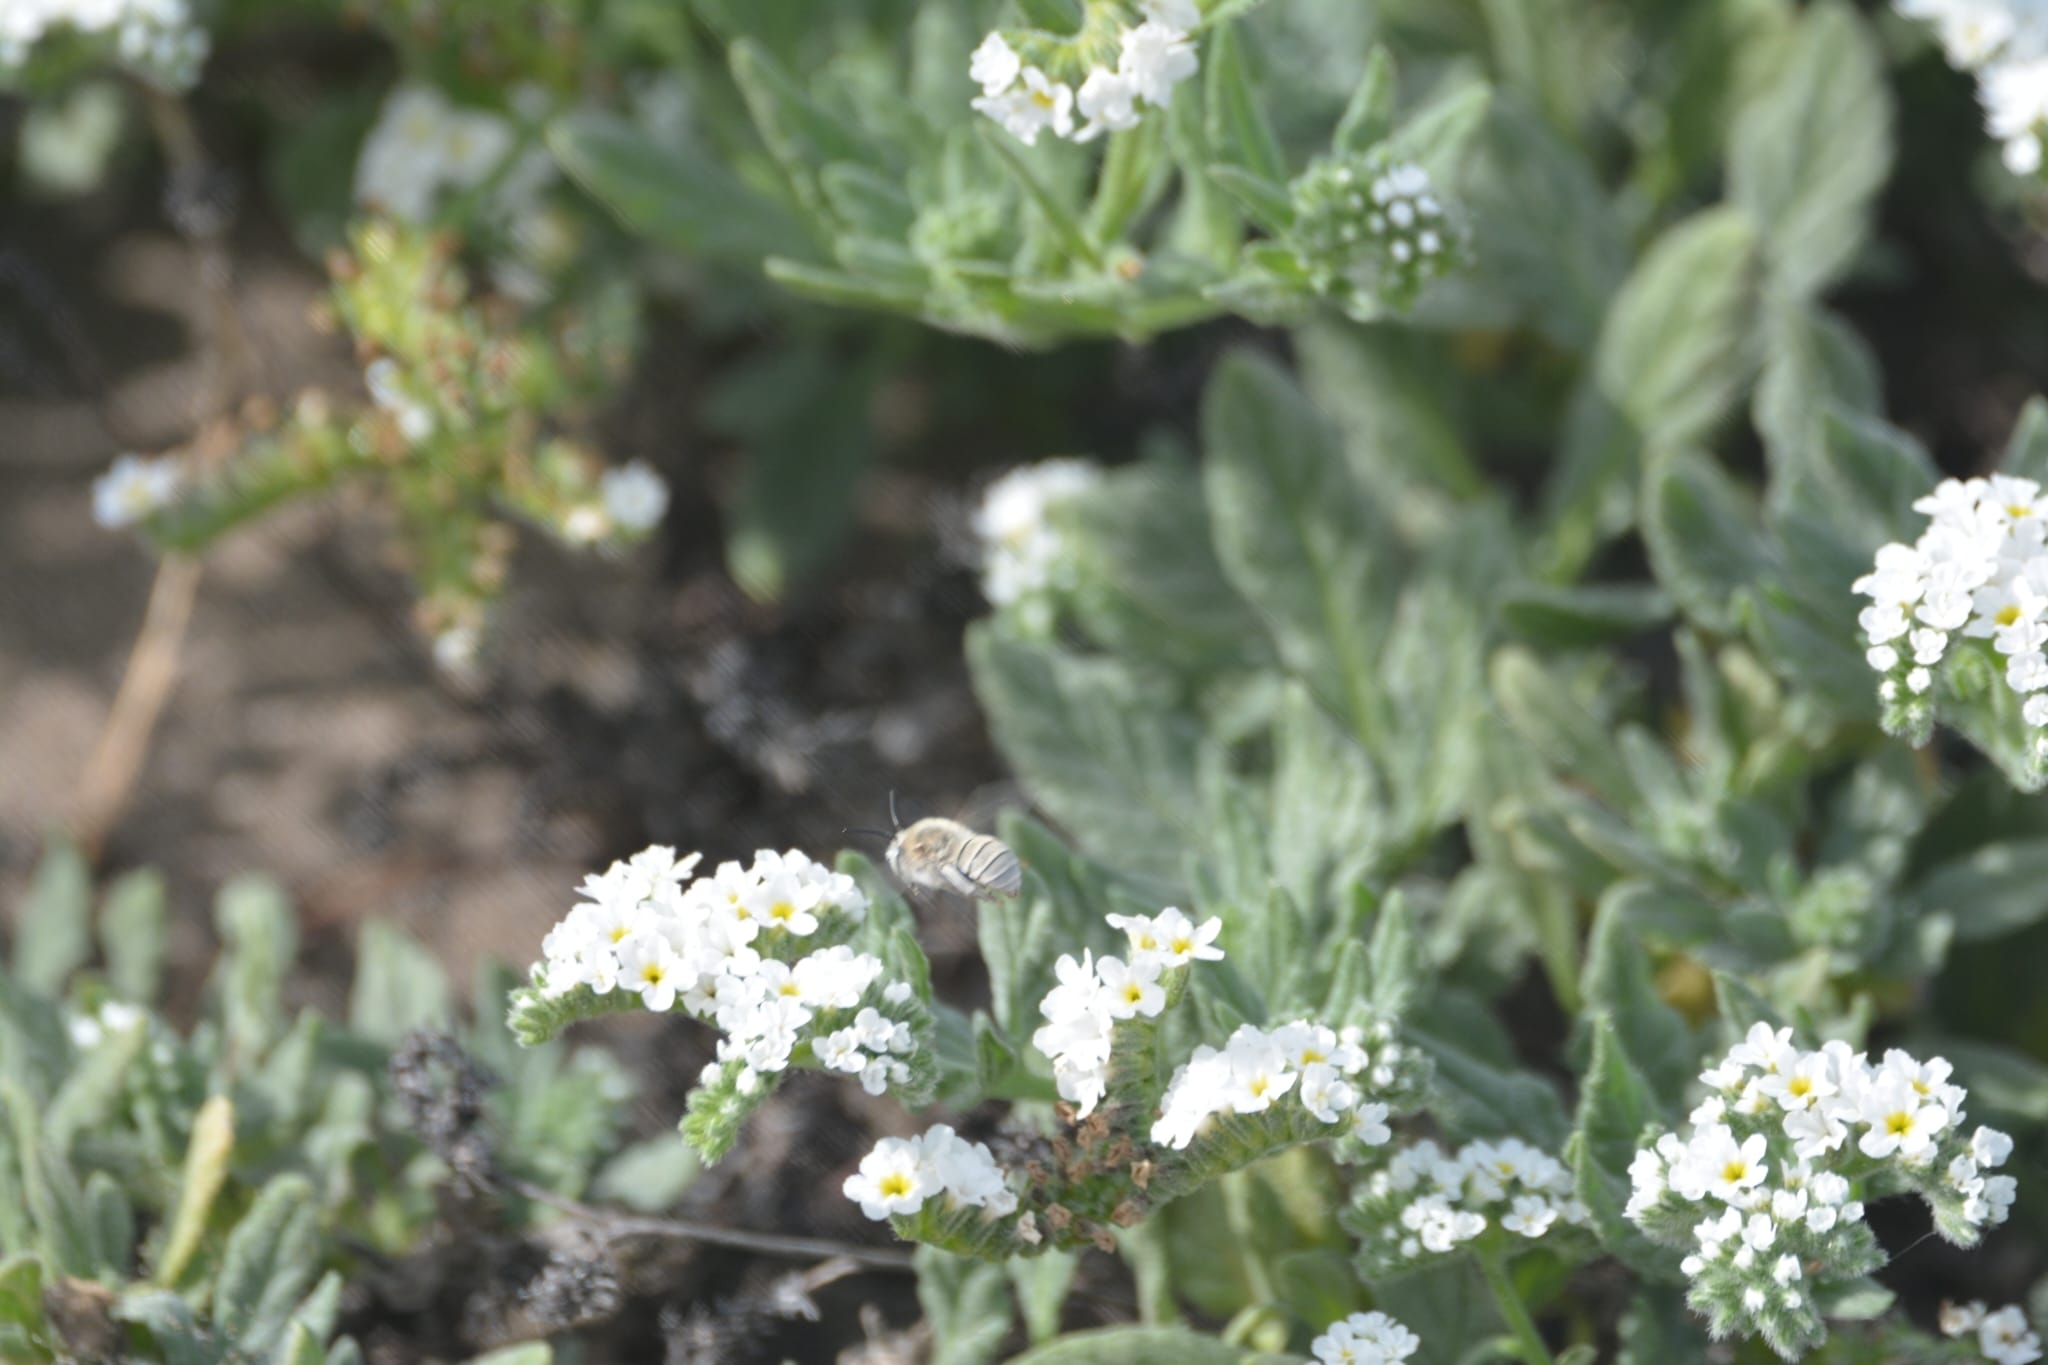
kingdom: Plantae
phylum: Tracheophyta
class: Magnoliopsida
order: Boraginales
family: Heliotropiaceae
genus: Heliotropium
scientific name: Heliotropium ramosissimum
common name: Wavy heliotrope
